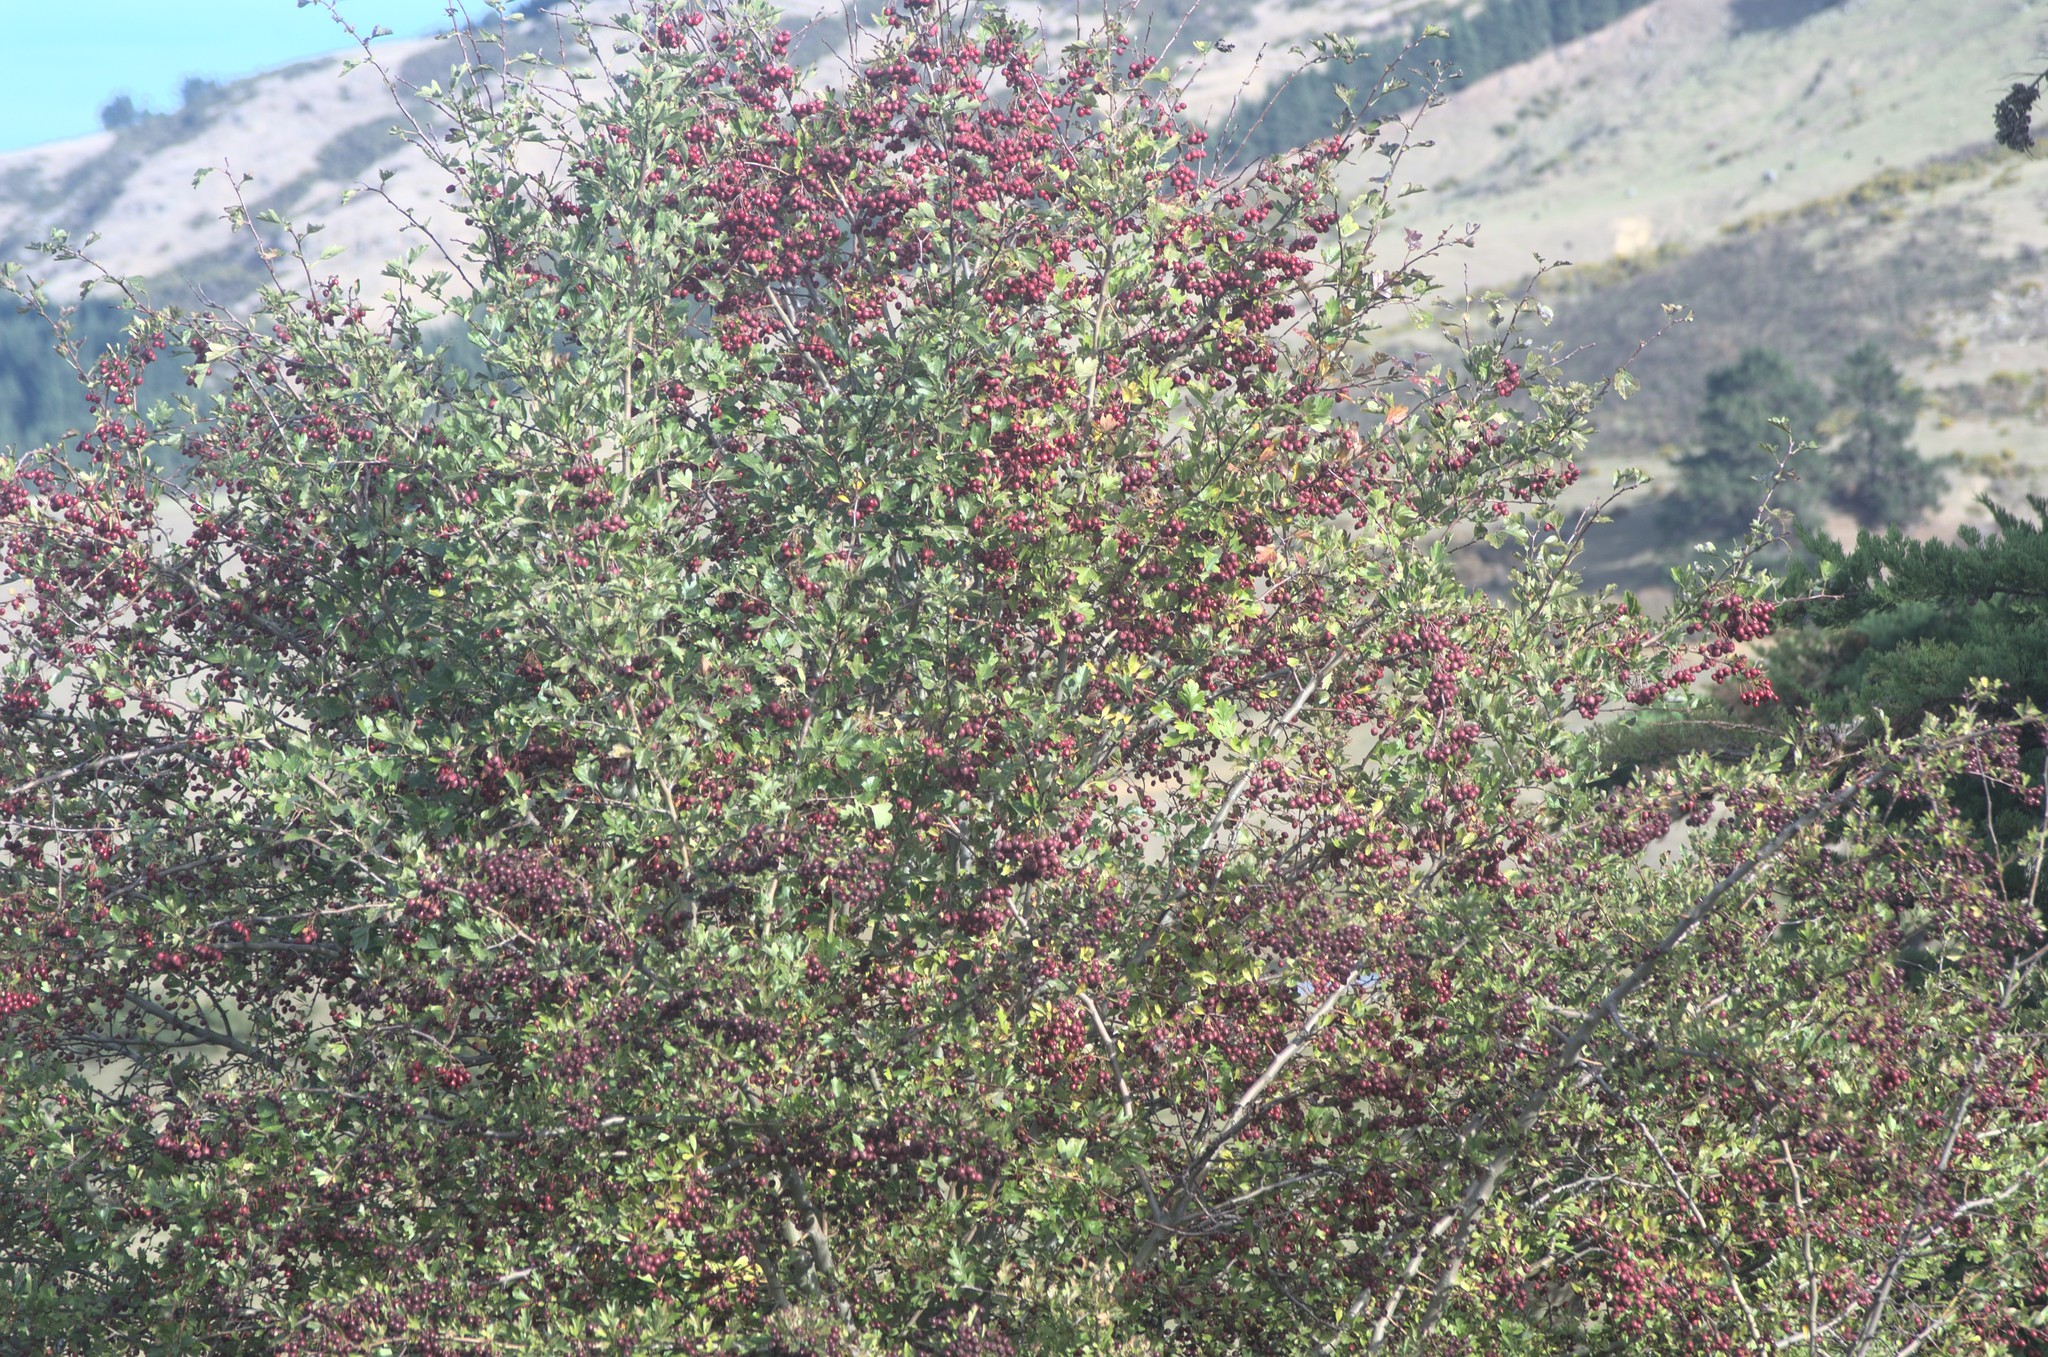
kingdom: Plantae
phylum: Tracheophyta
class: Magnoliopsida
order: Rosales
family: Rosaceae
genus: Crataegus
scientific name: Crataegus monogyna
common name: Hawthorn
